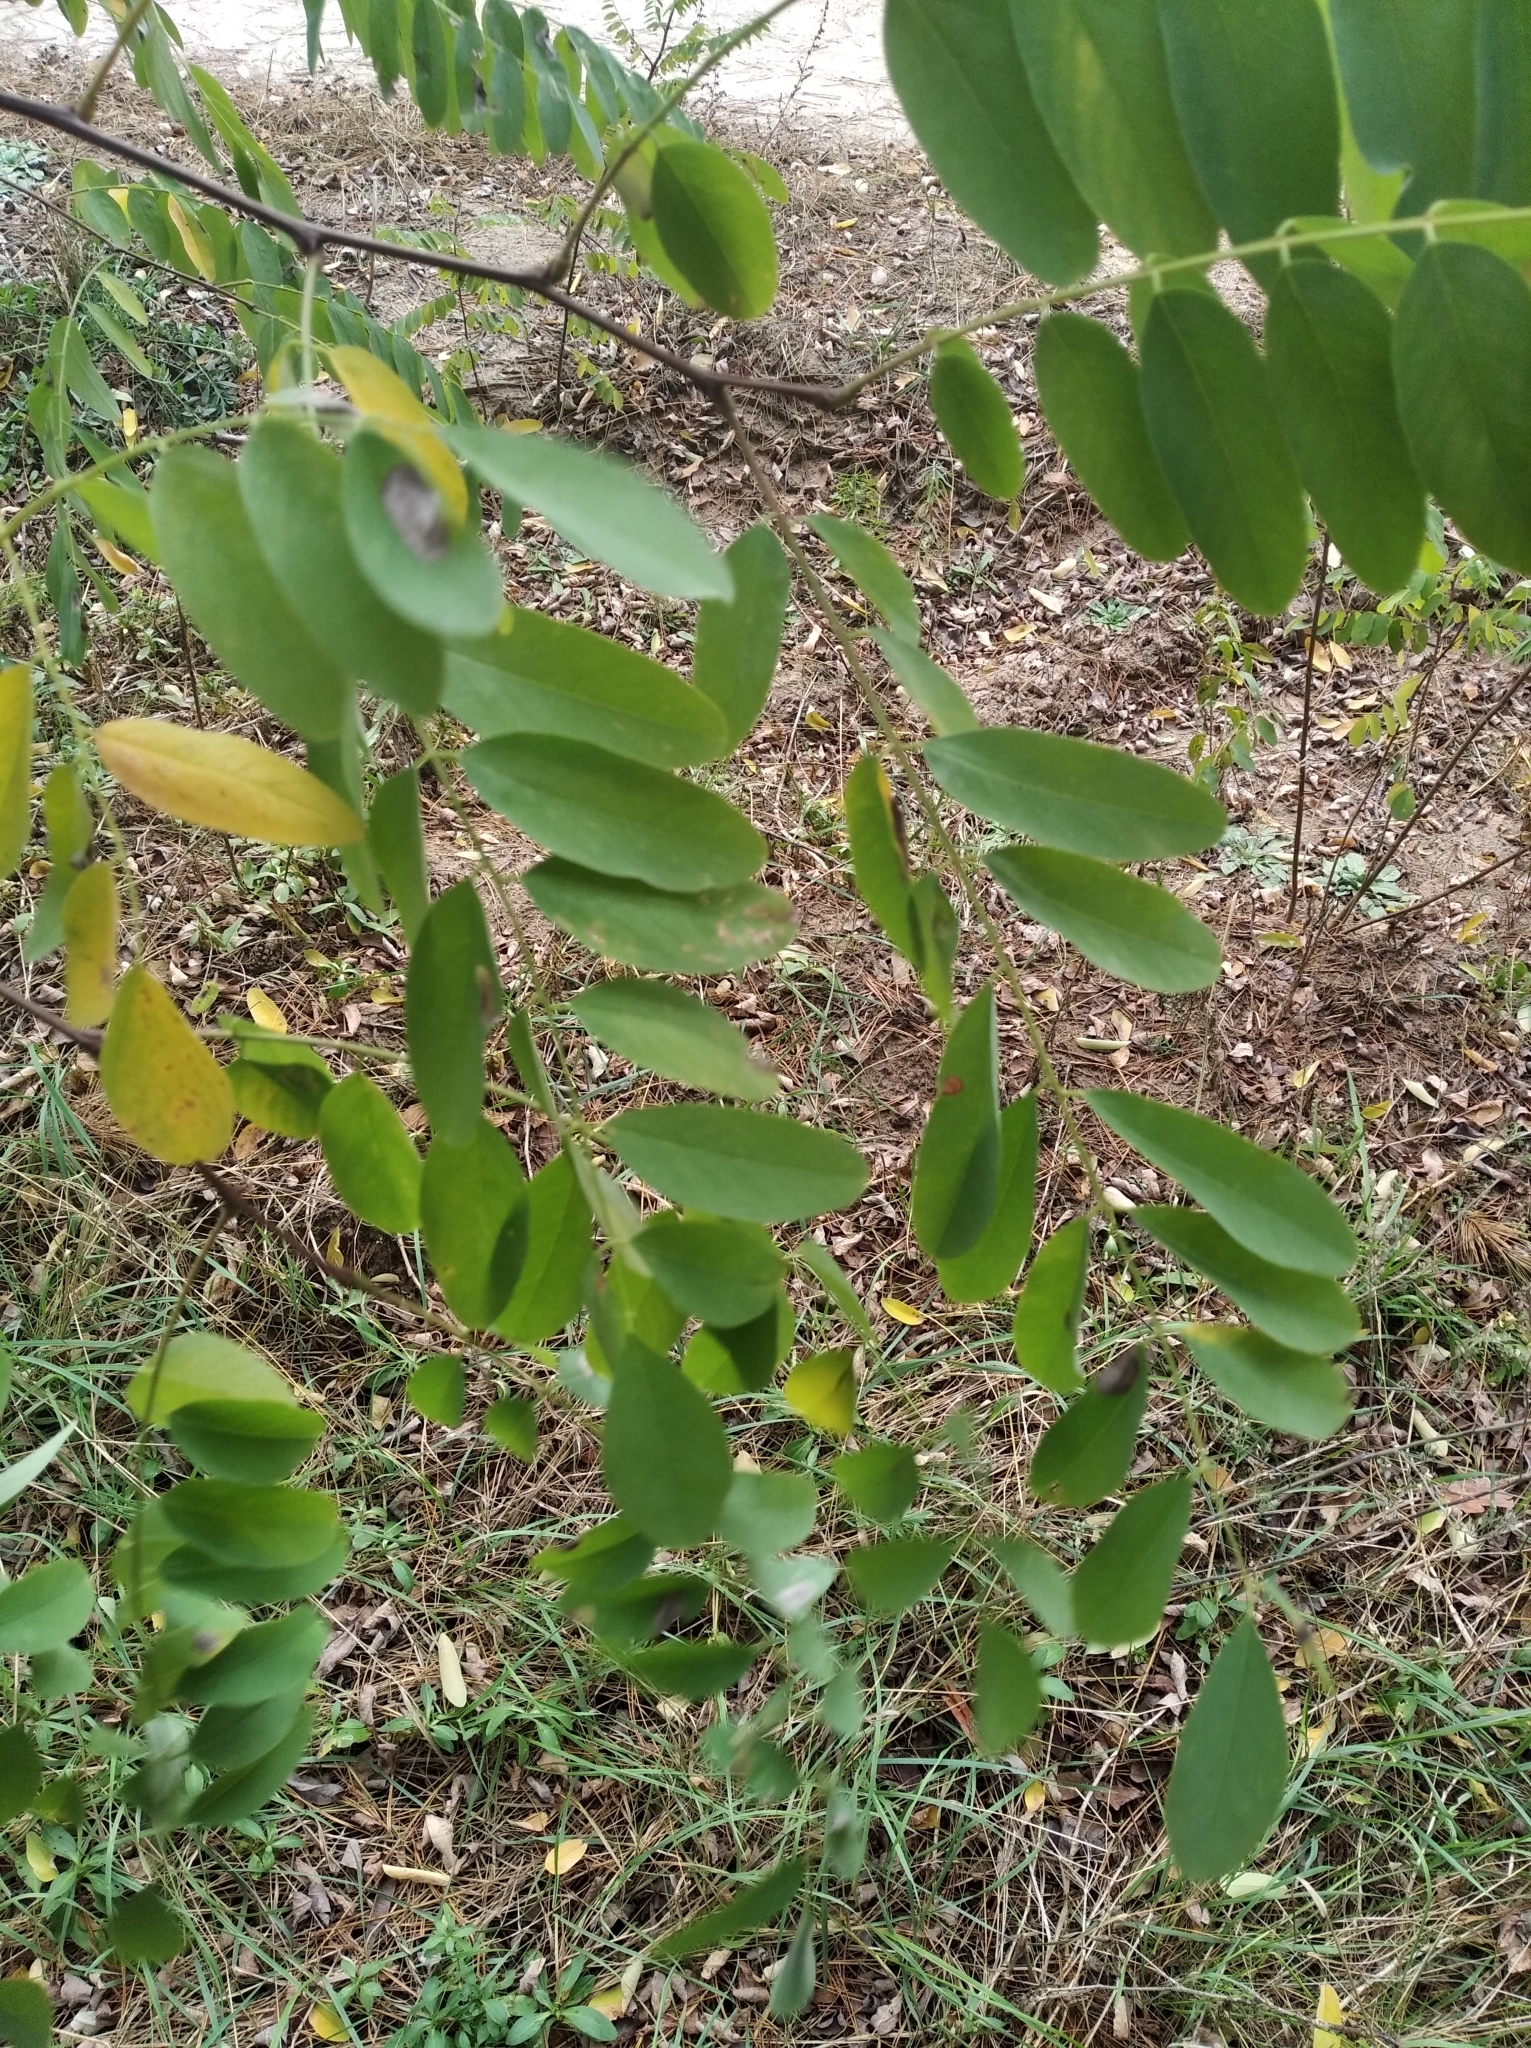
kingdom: Plantae
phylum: Tracheophyta
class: Magnoliopsida
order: Fabales
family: Fabaceae
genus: Robinia
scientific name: Robinia pseudoacacia
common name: Black locust
